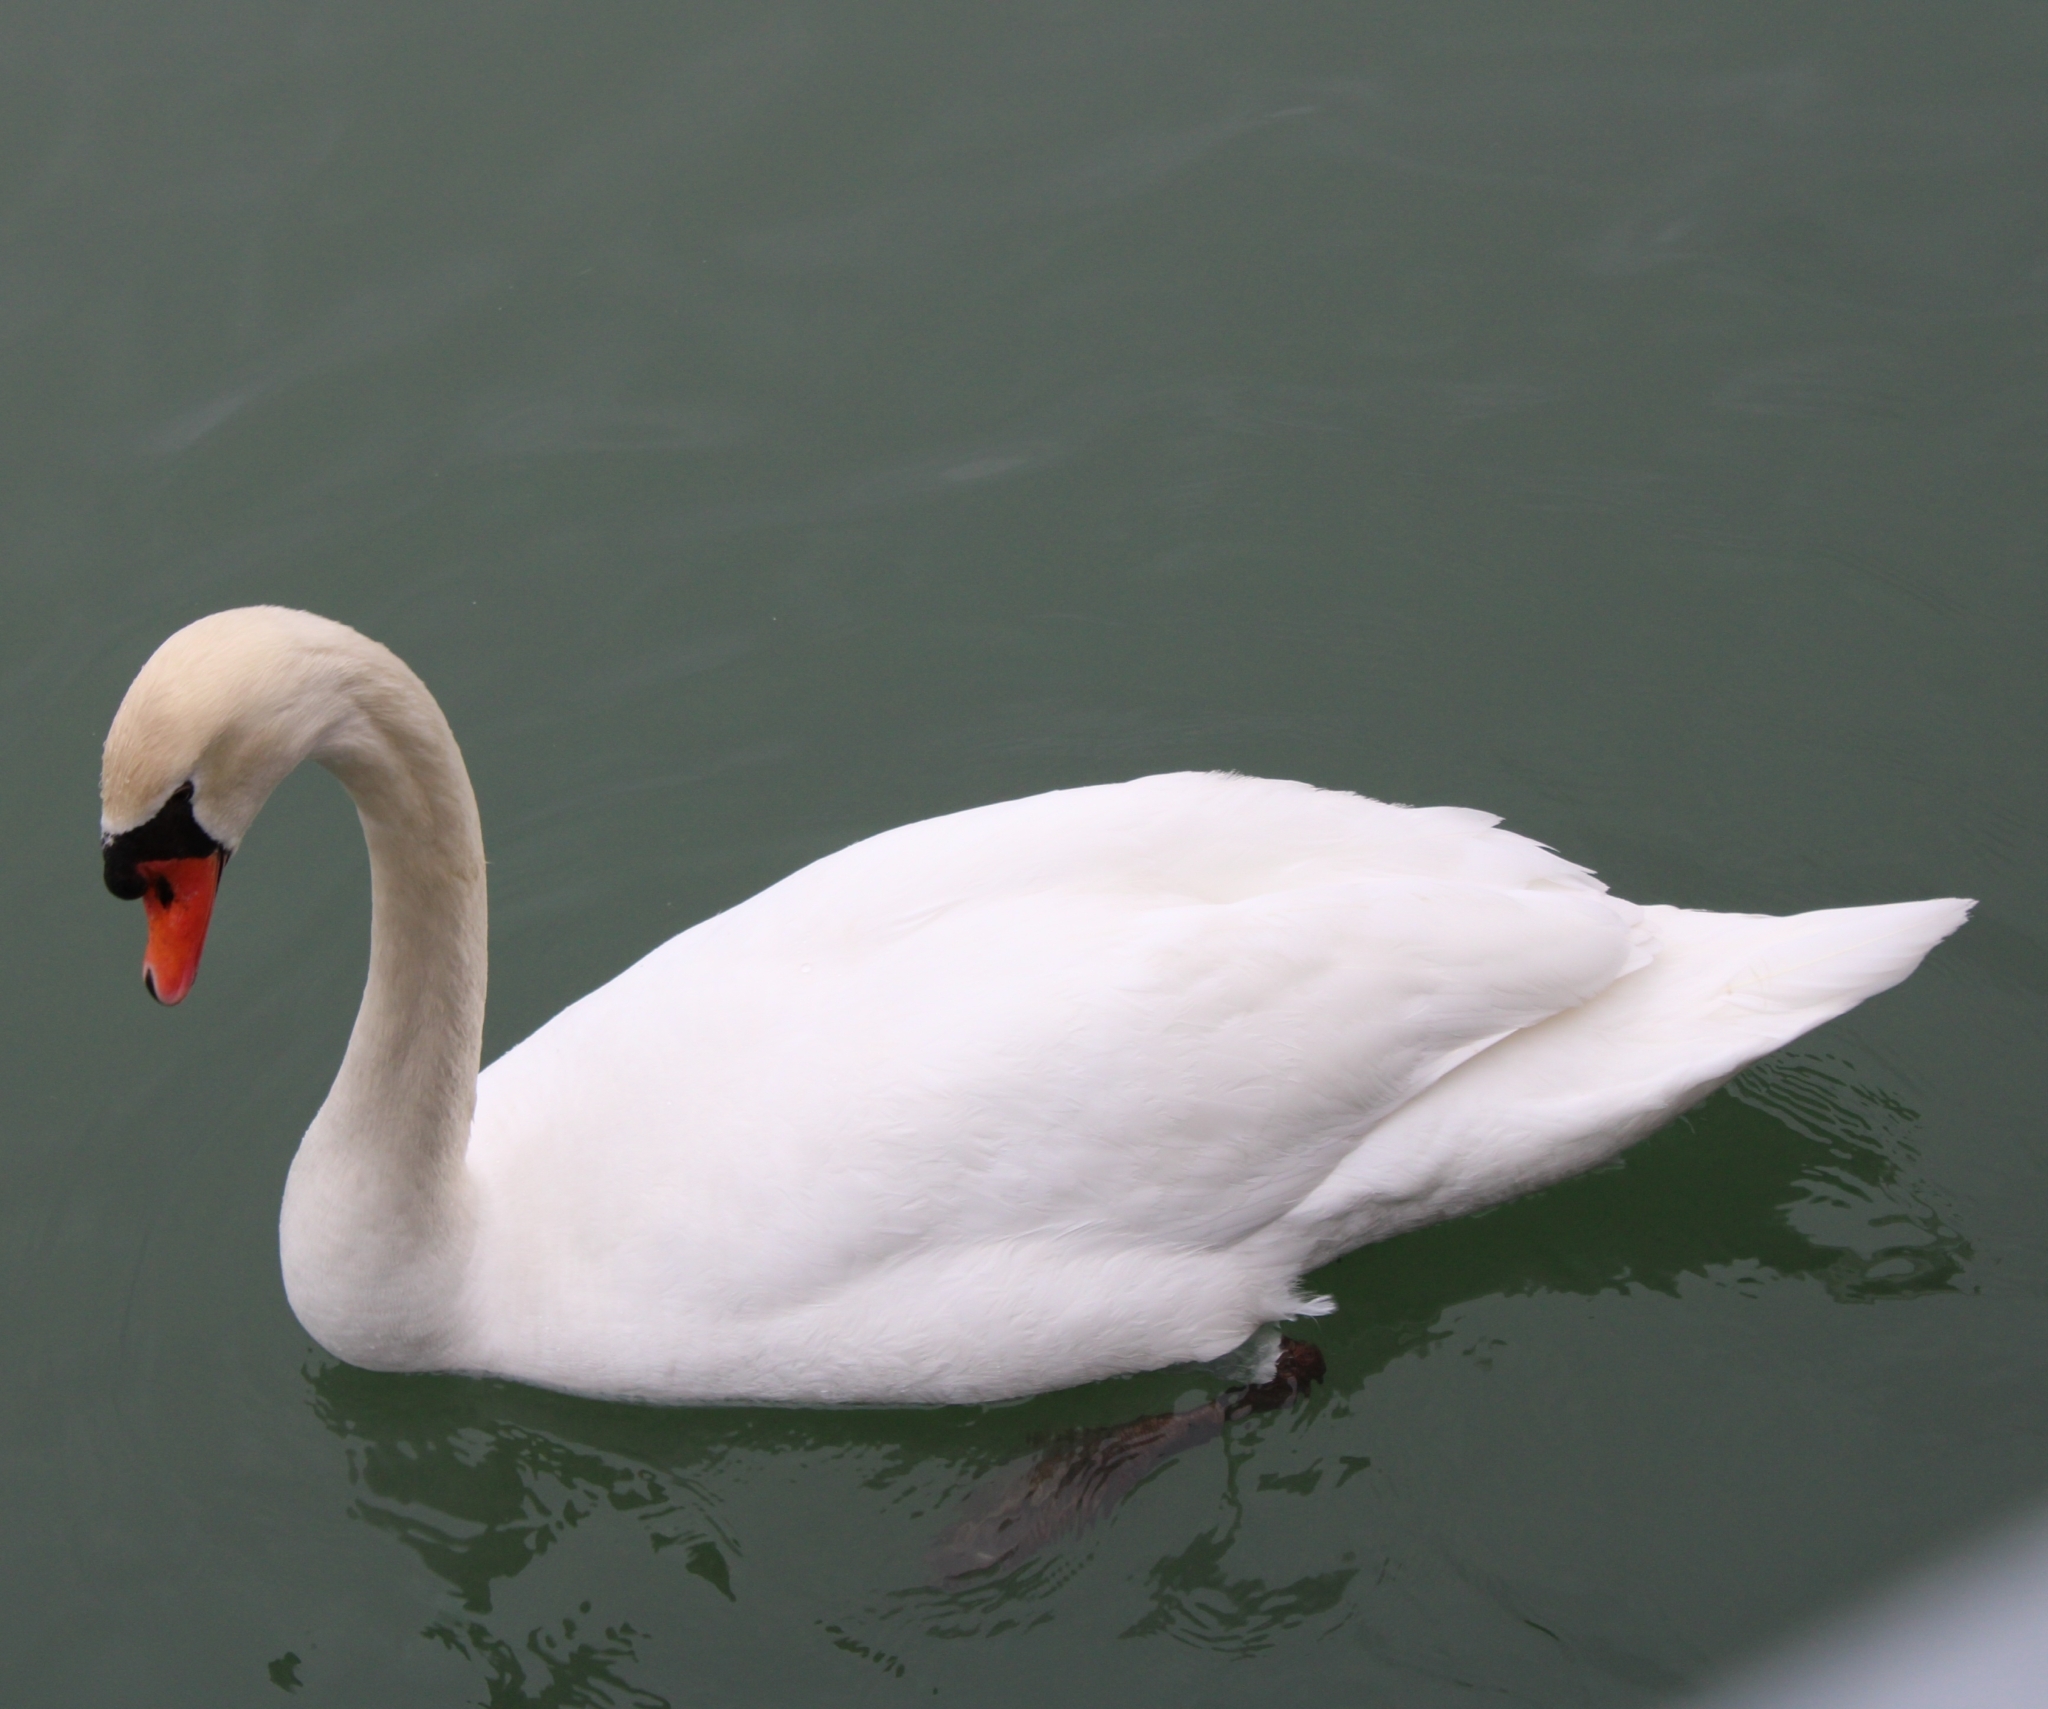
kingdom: Animalia
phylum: Chordata
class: Aves
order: Anseriformes
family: Anatidae
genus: Cygnus
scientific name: Cygnus olor
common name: Mute swan
